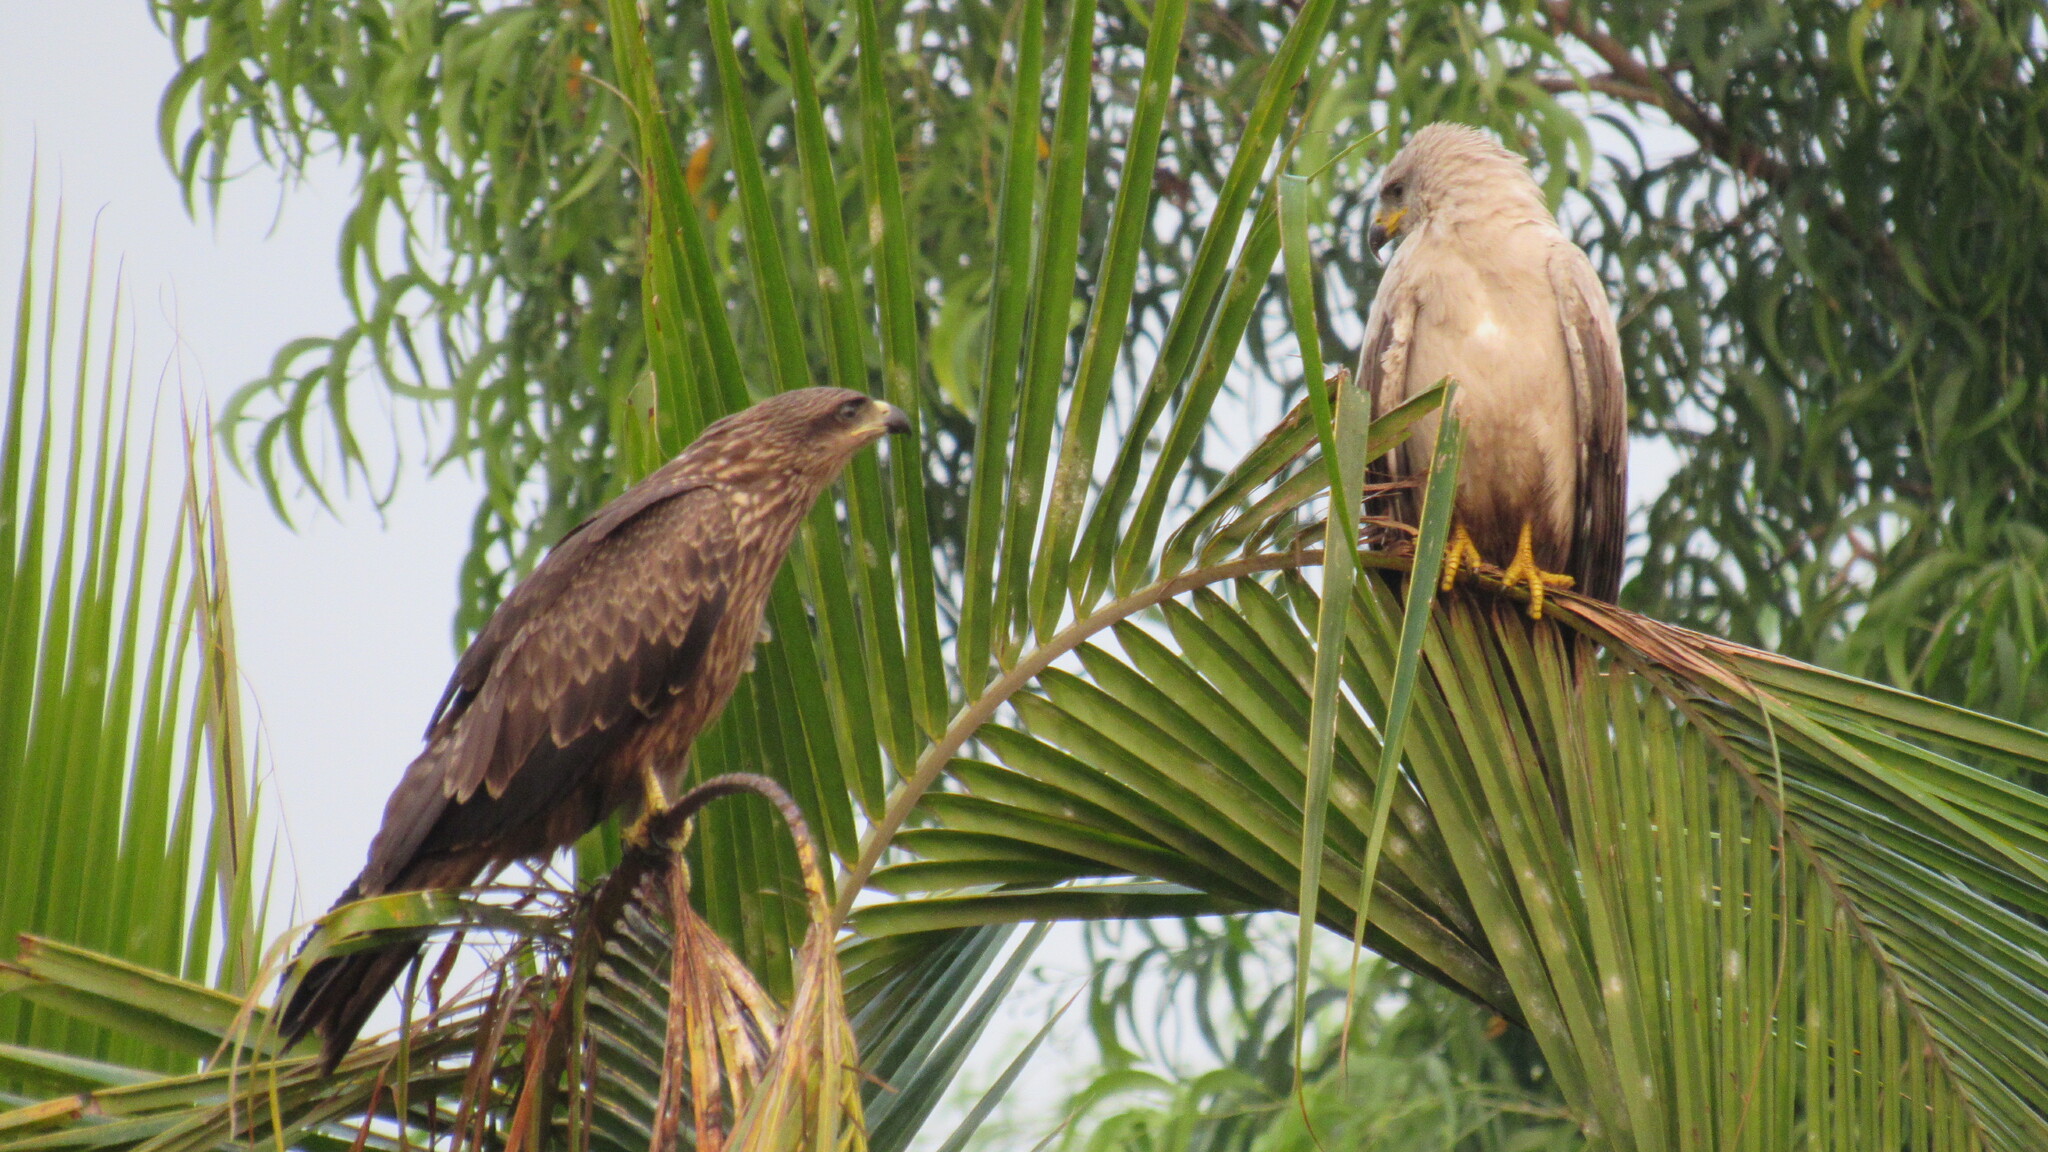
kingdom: Animalia
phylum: Chordata
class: Aves
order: Accipitriformes
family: Accipitridae
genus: Milvus
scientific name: Milvus migrans
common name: Black kite
